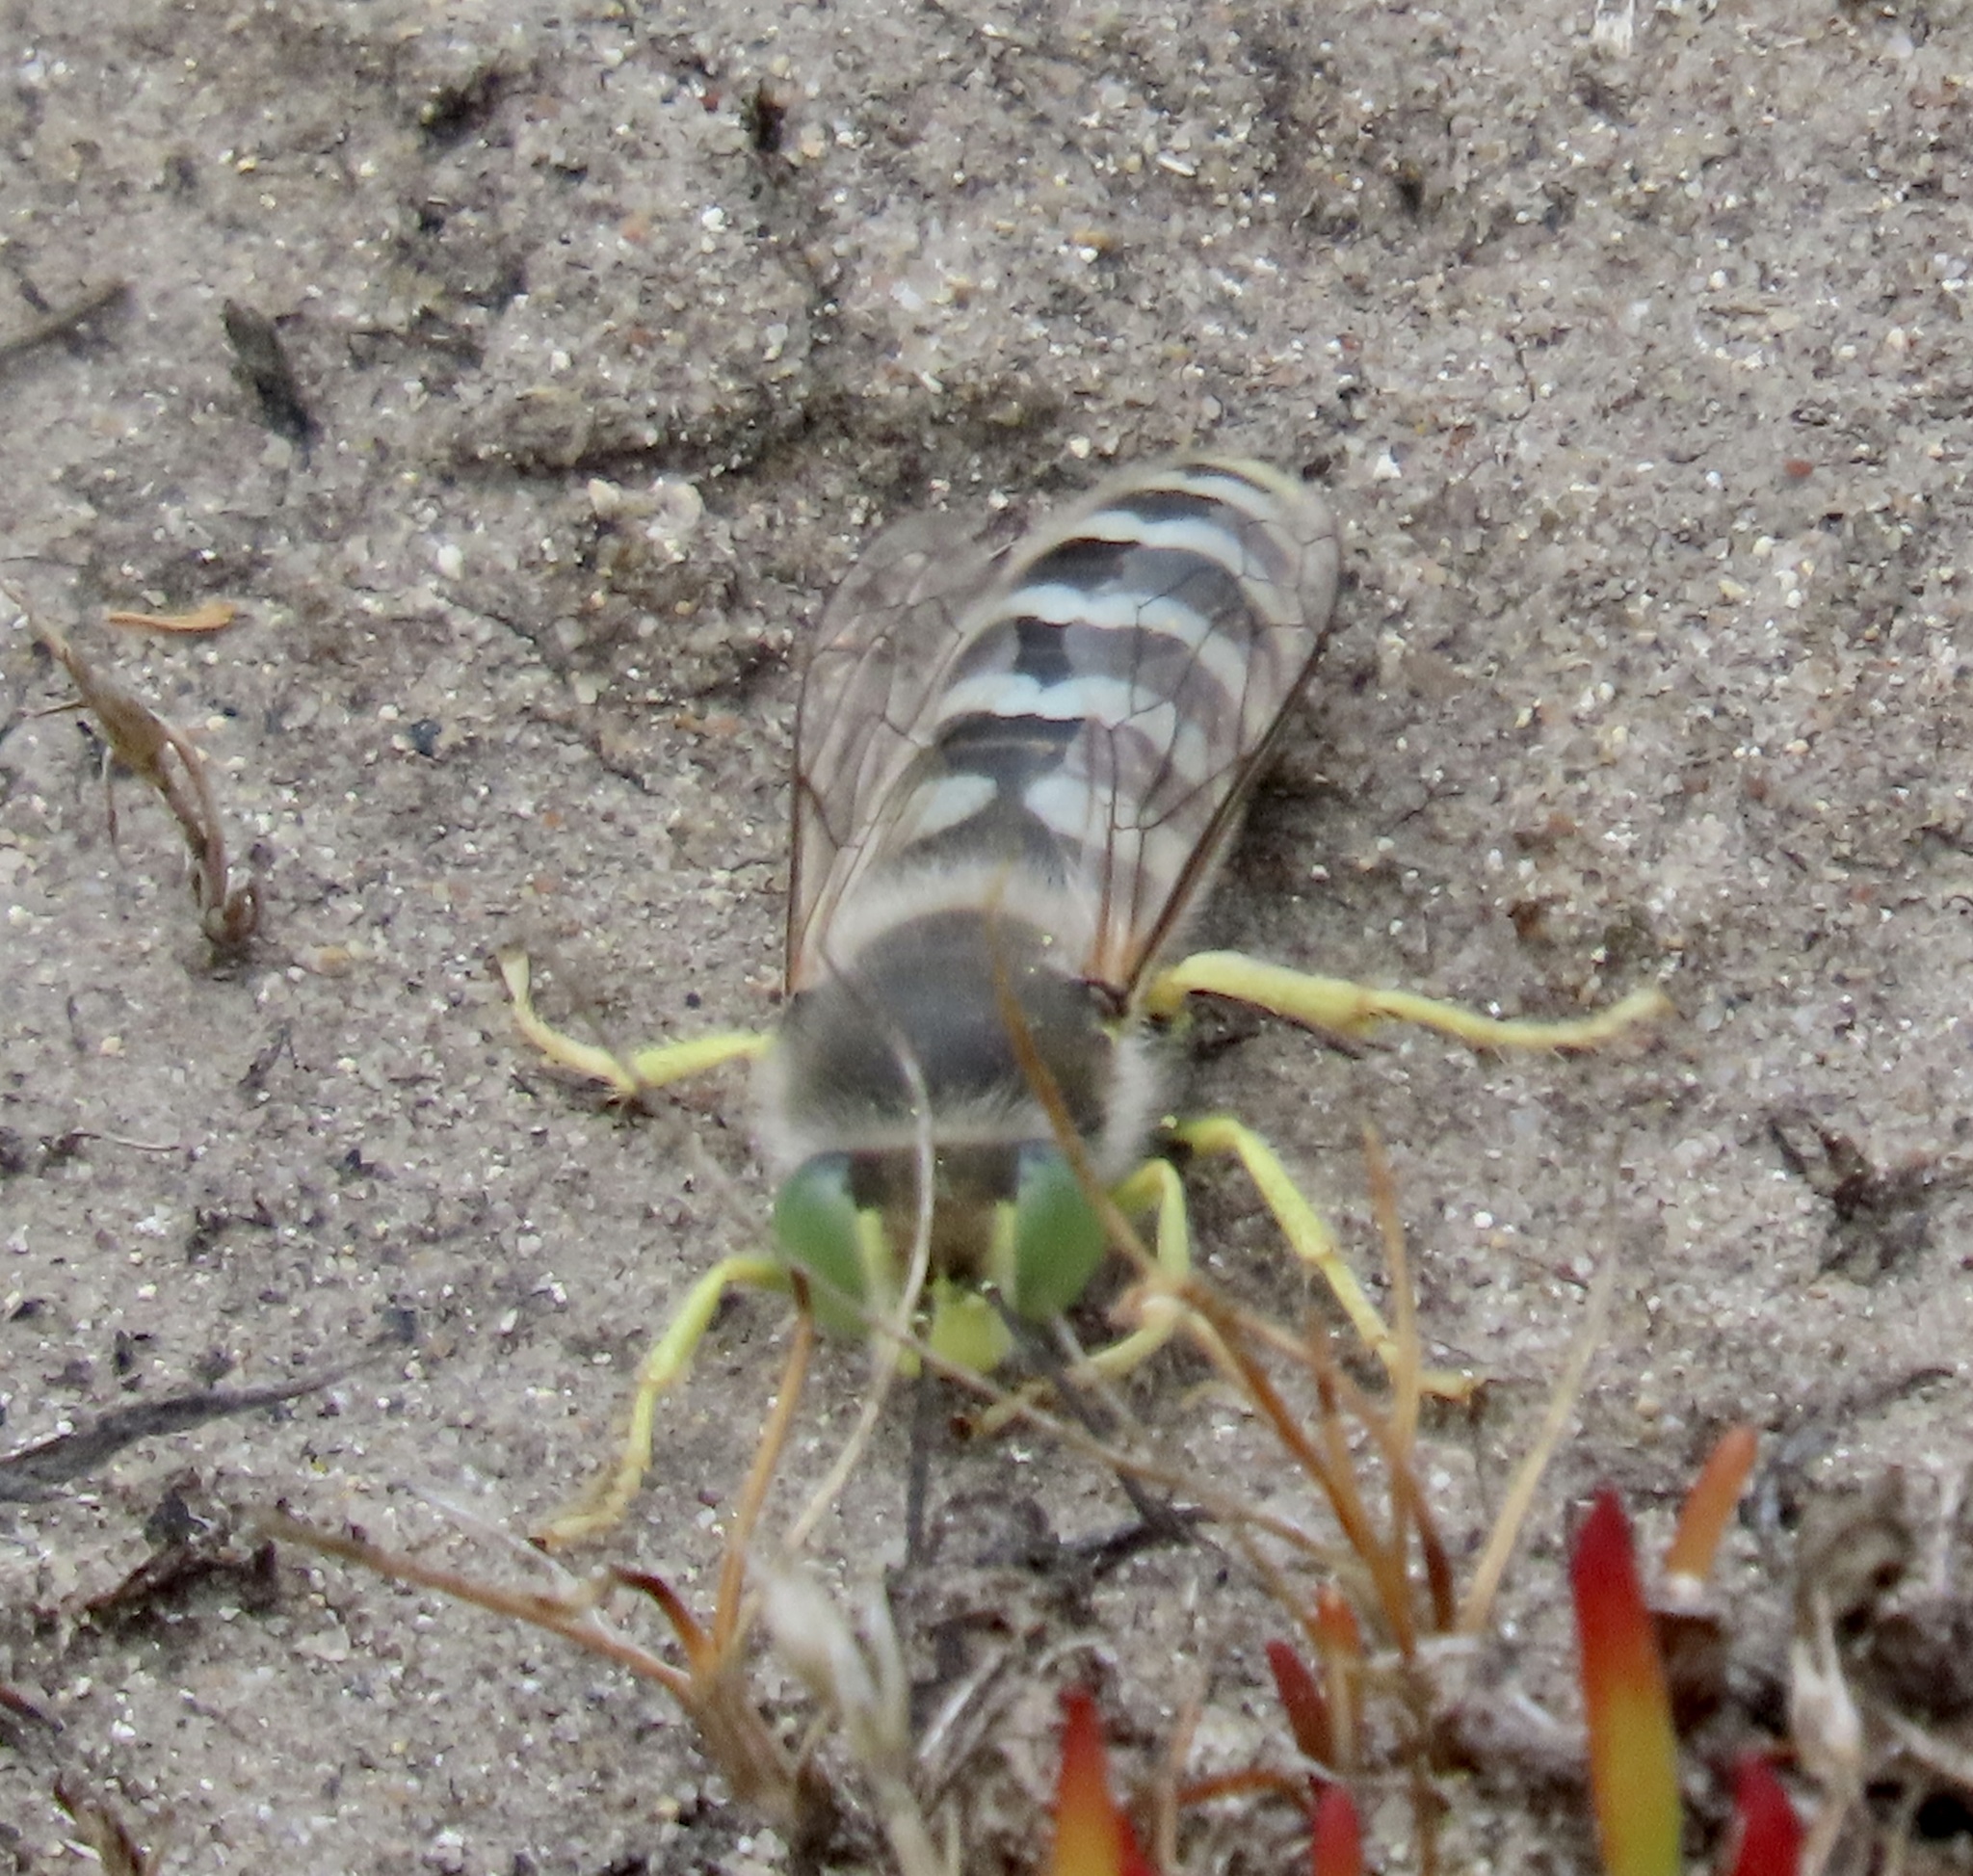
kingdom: Animalia
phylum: Arthropoda
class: Insecta
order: Hymenoptera
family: Crabronidae
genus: Bembix
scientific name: Bembix americana
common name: American sand wasp
